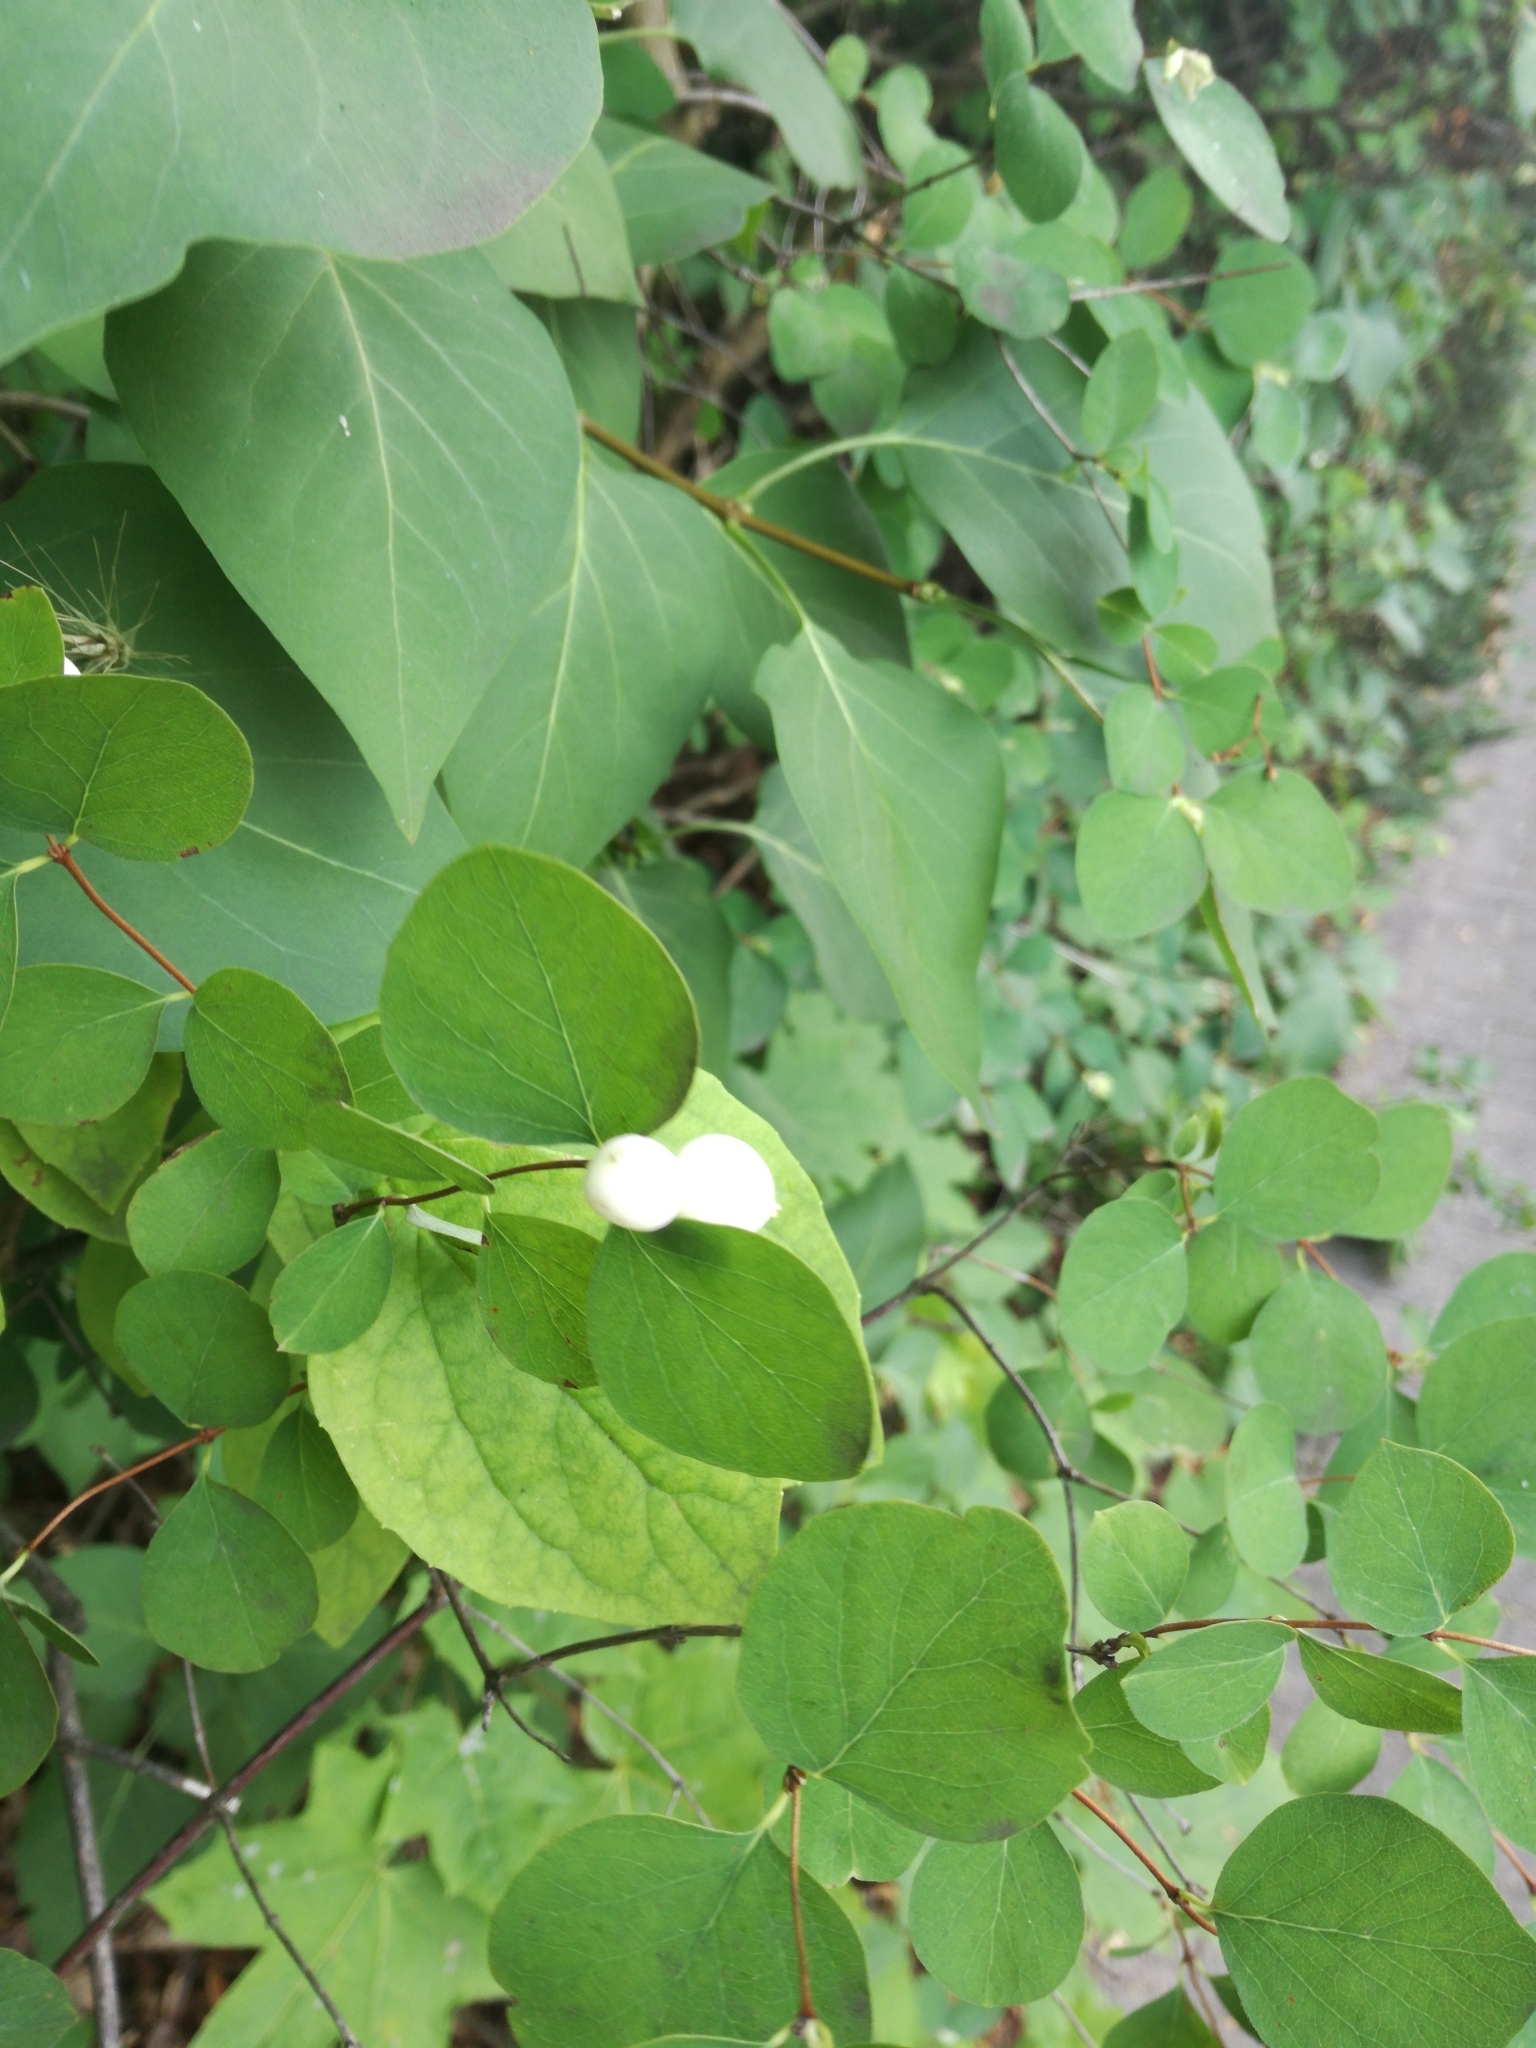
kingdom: Plantae
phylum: Tracheophyta
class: Magnoliopsida
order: Dipsacales
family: Caprifoliaceae
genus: Symphoricarpos
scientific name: Symphoricarpos albus
